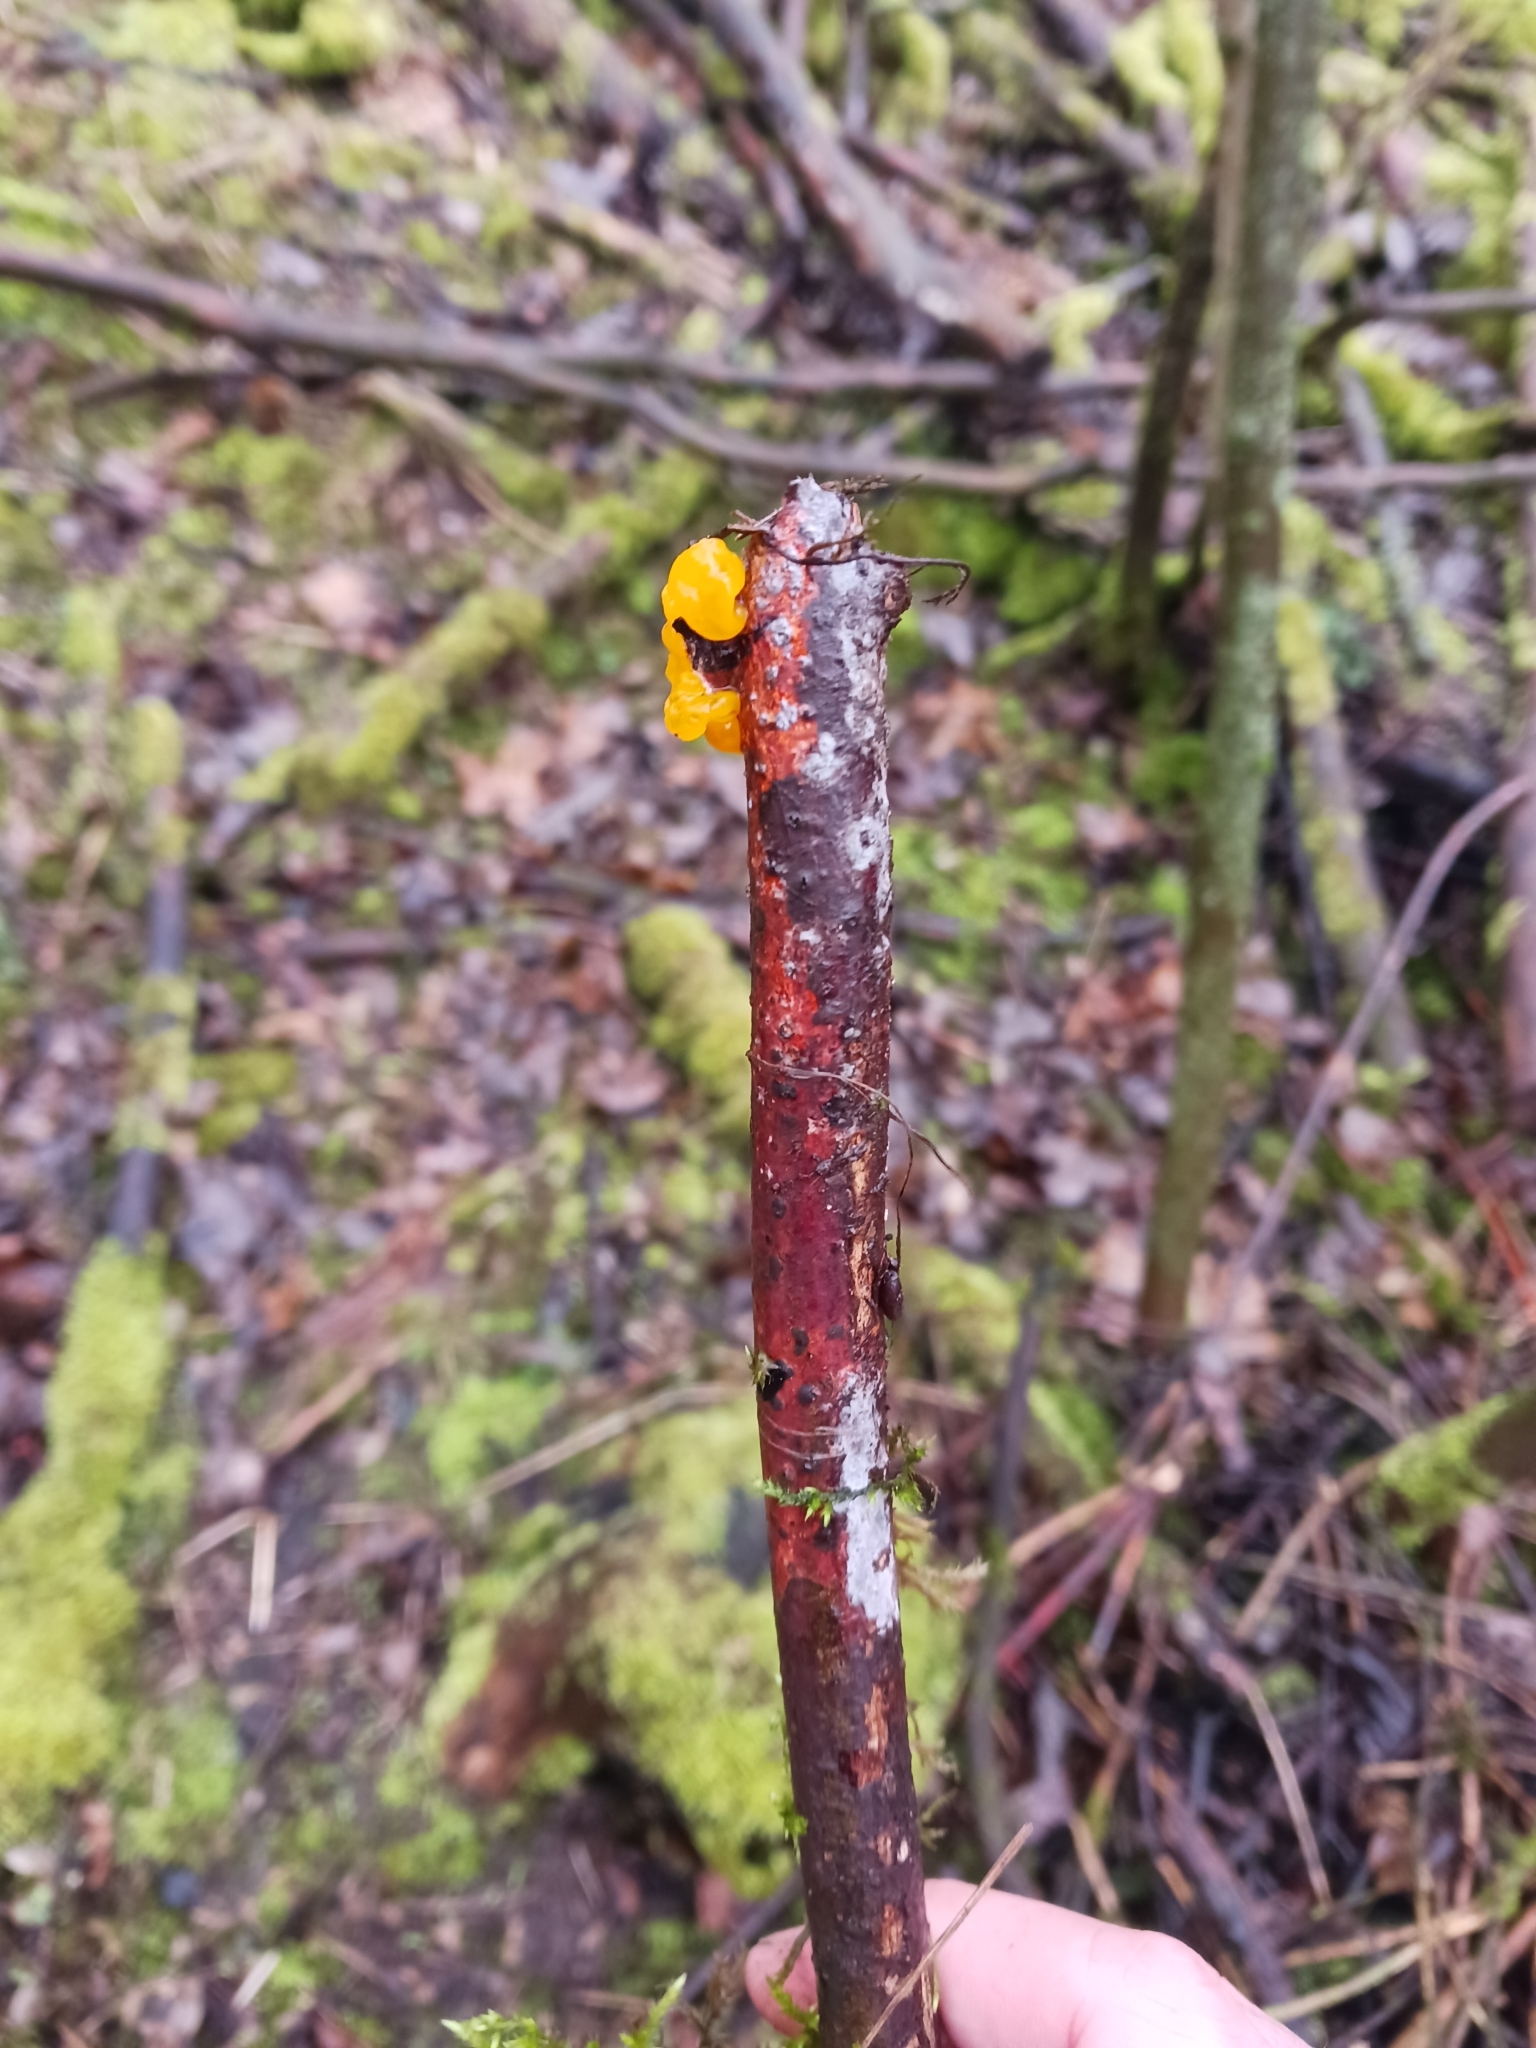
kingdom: Fungi
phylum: Basidiomycota
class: Tremellomycetes
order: Tremellales
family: Tremellaceae
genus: Tremella
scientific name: Tremella mesenterica
